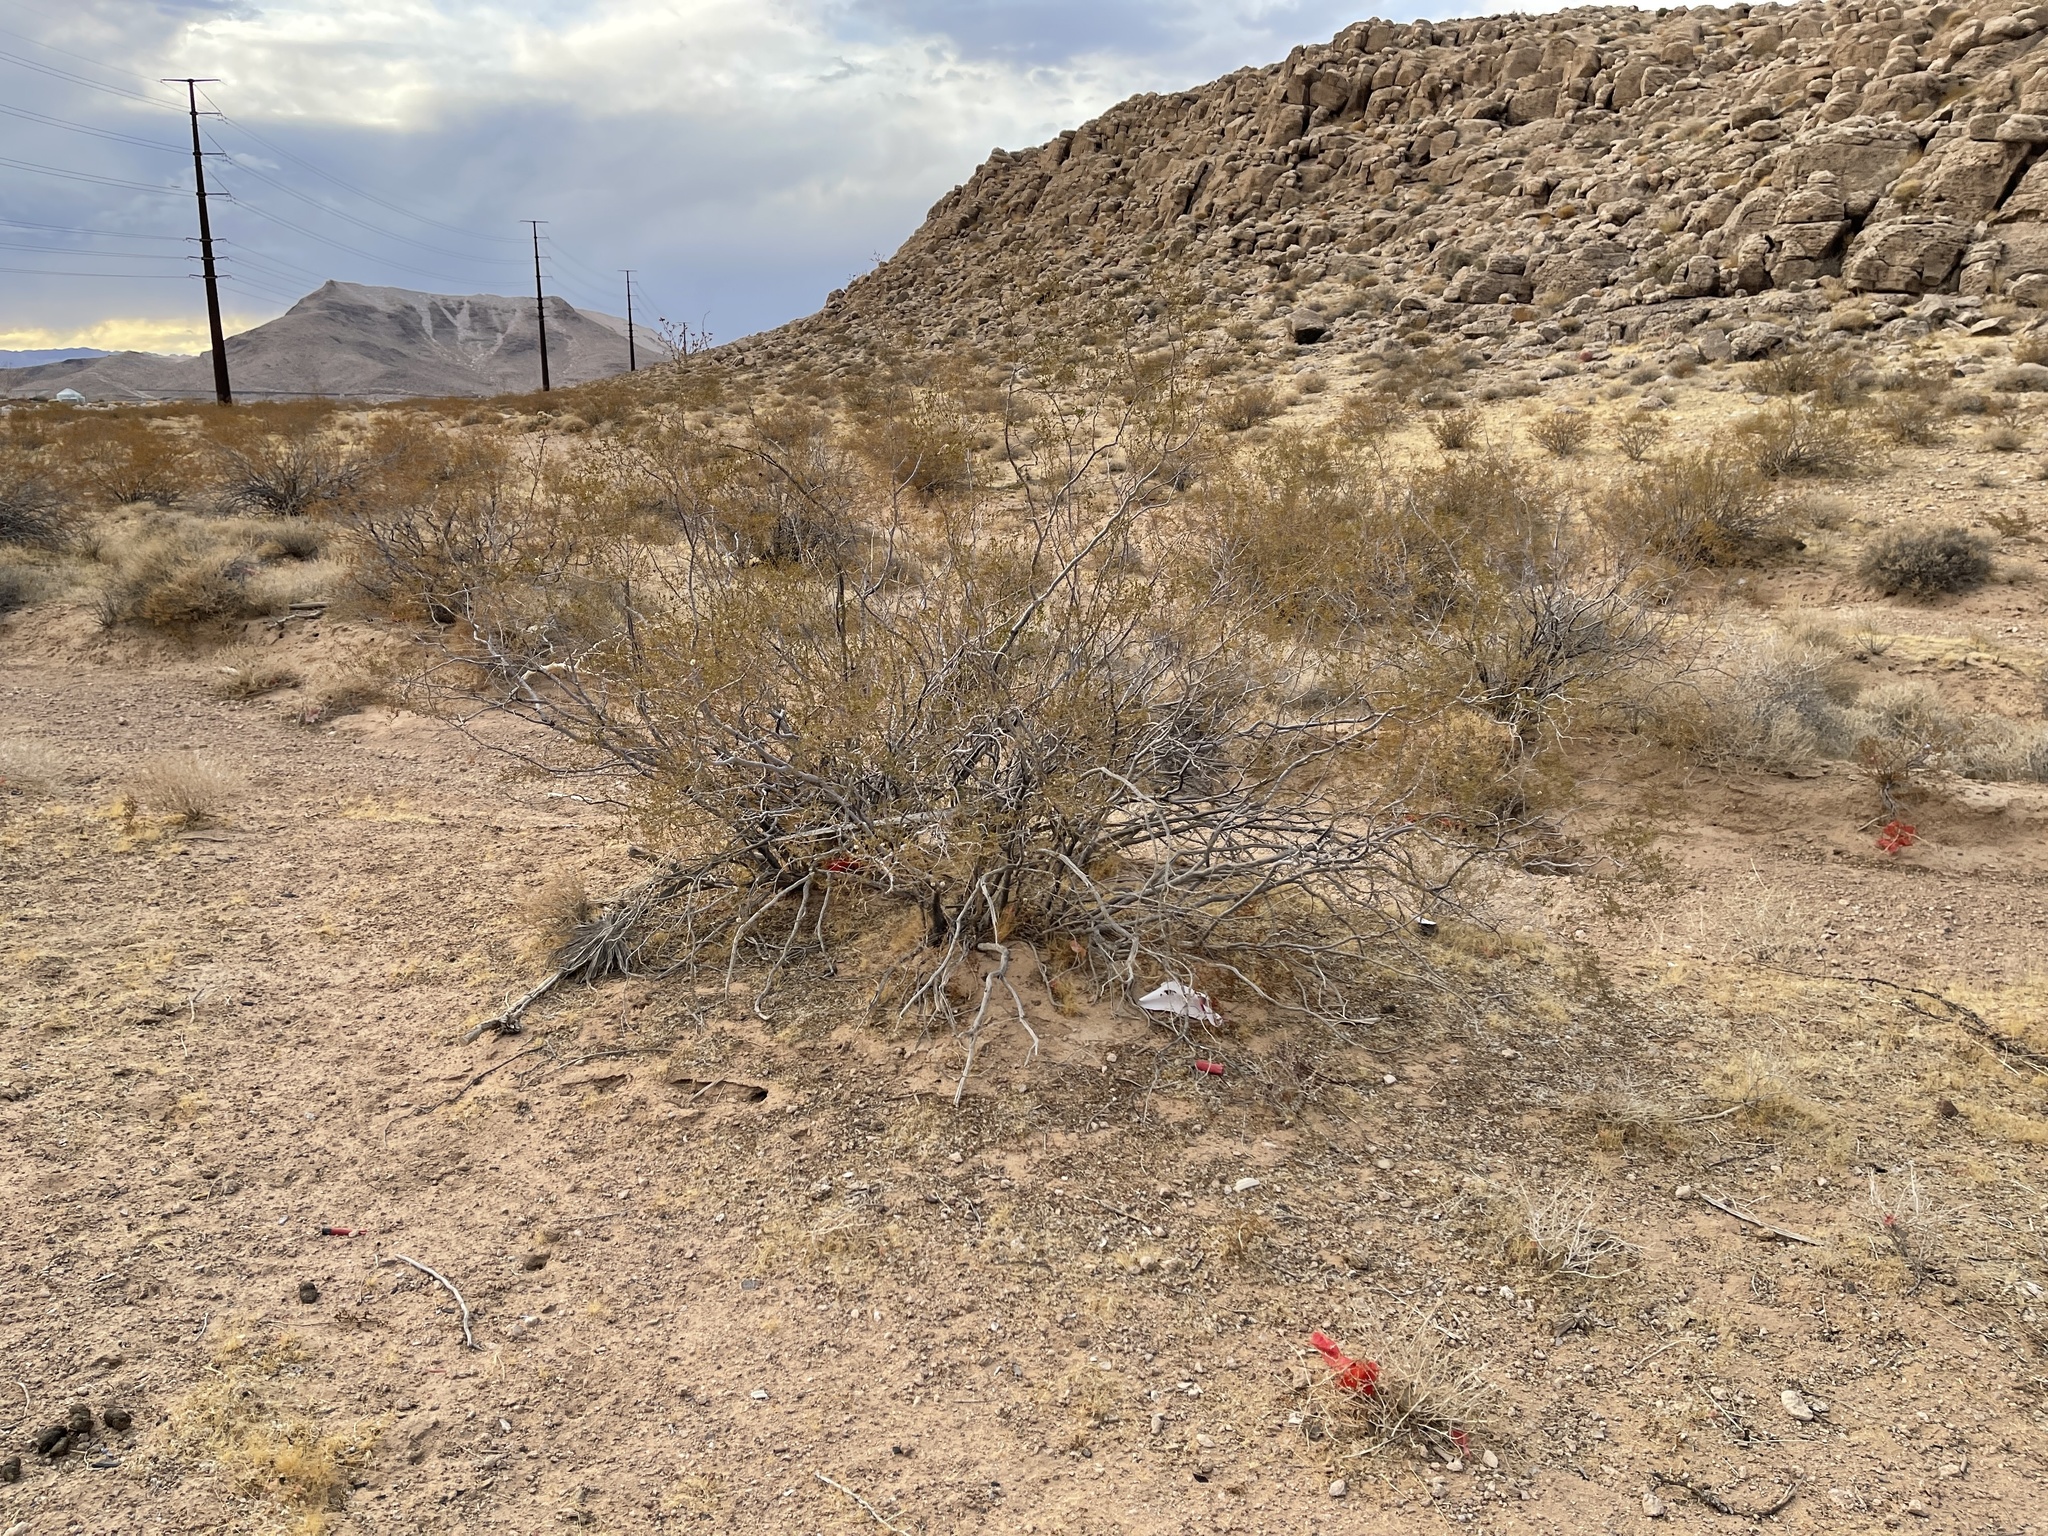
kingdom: Plantae
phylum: Tracheophyta
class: Magnoliopsida
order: Zygophyllales
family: Zygophyllaceae
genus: Larrea
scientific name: Larrea tridentata
